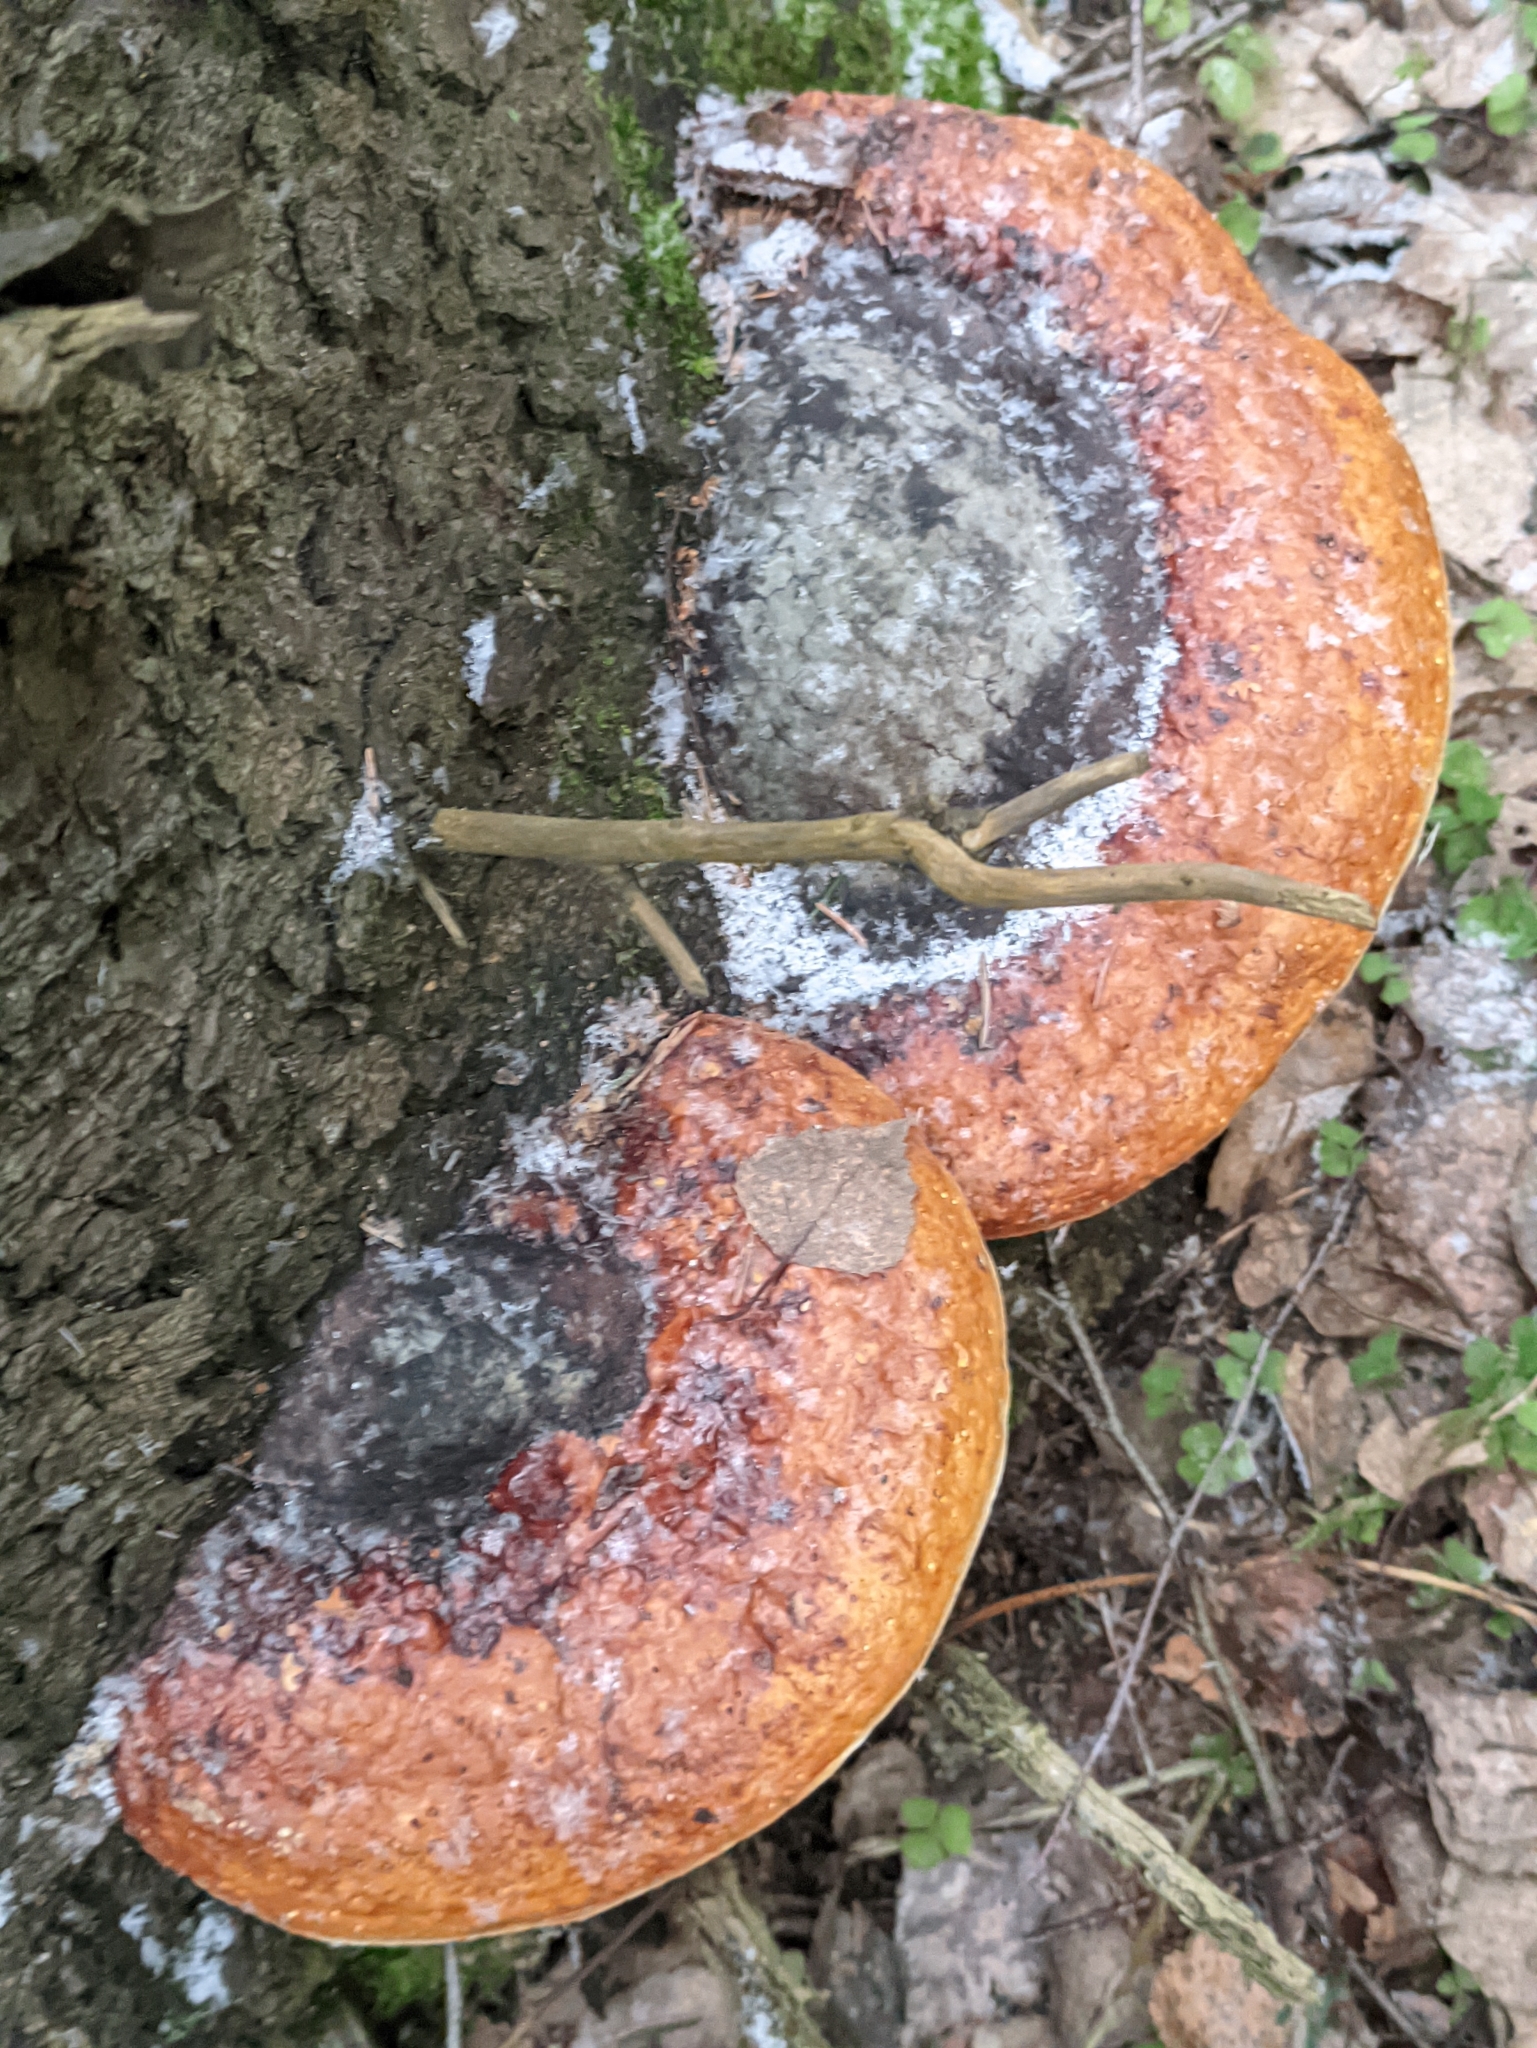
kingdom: Fungi
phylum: Basidiomycota
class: Agaricomycetes
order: Polyporales
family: Fomitopsidaceae
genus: Fomitopsis
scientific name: Fomitopsis pinicola
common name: Red-belted bracket
